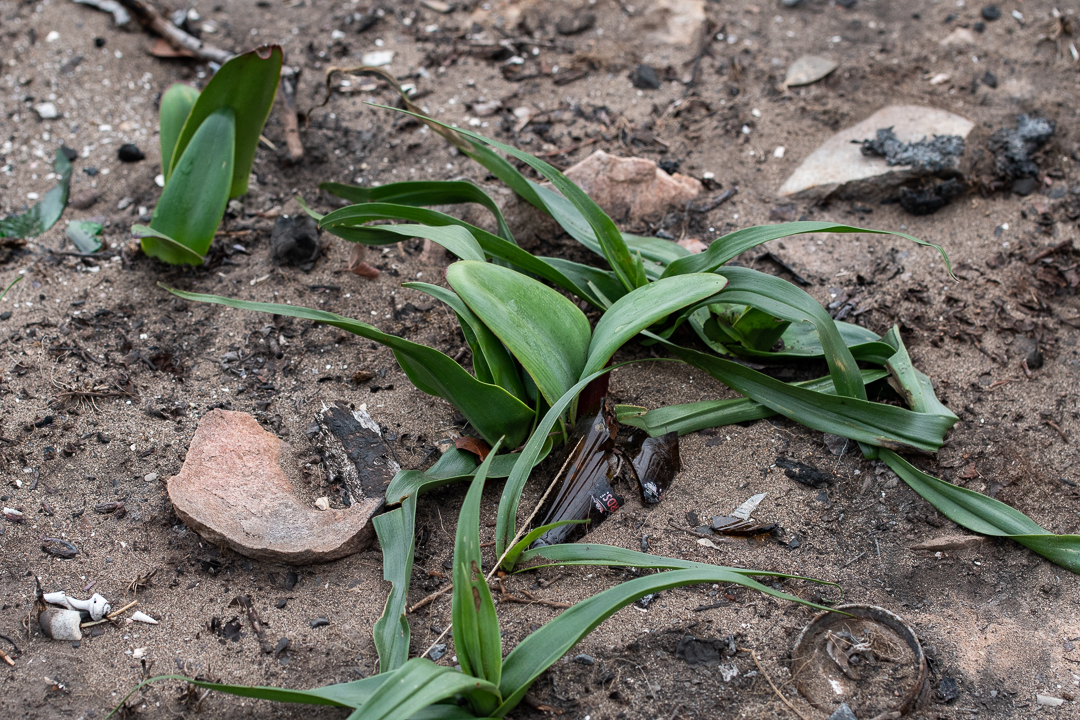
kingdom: Plantae
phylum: Tracheophyta
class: Liliopsida
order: Asparagales
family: Amaryllidaceae
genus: Haemanthus
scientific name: Haemanthus coccineus
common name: Cape-tulip
